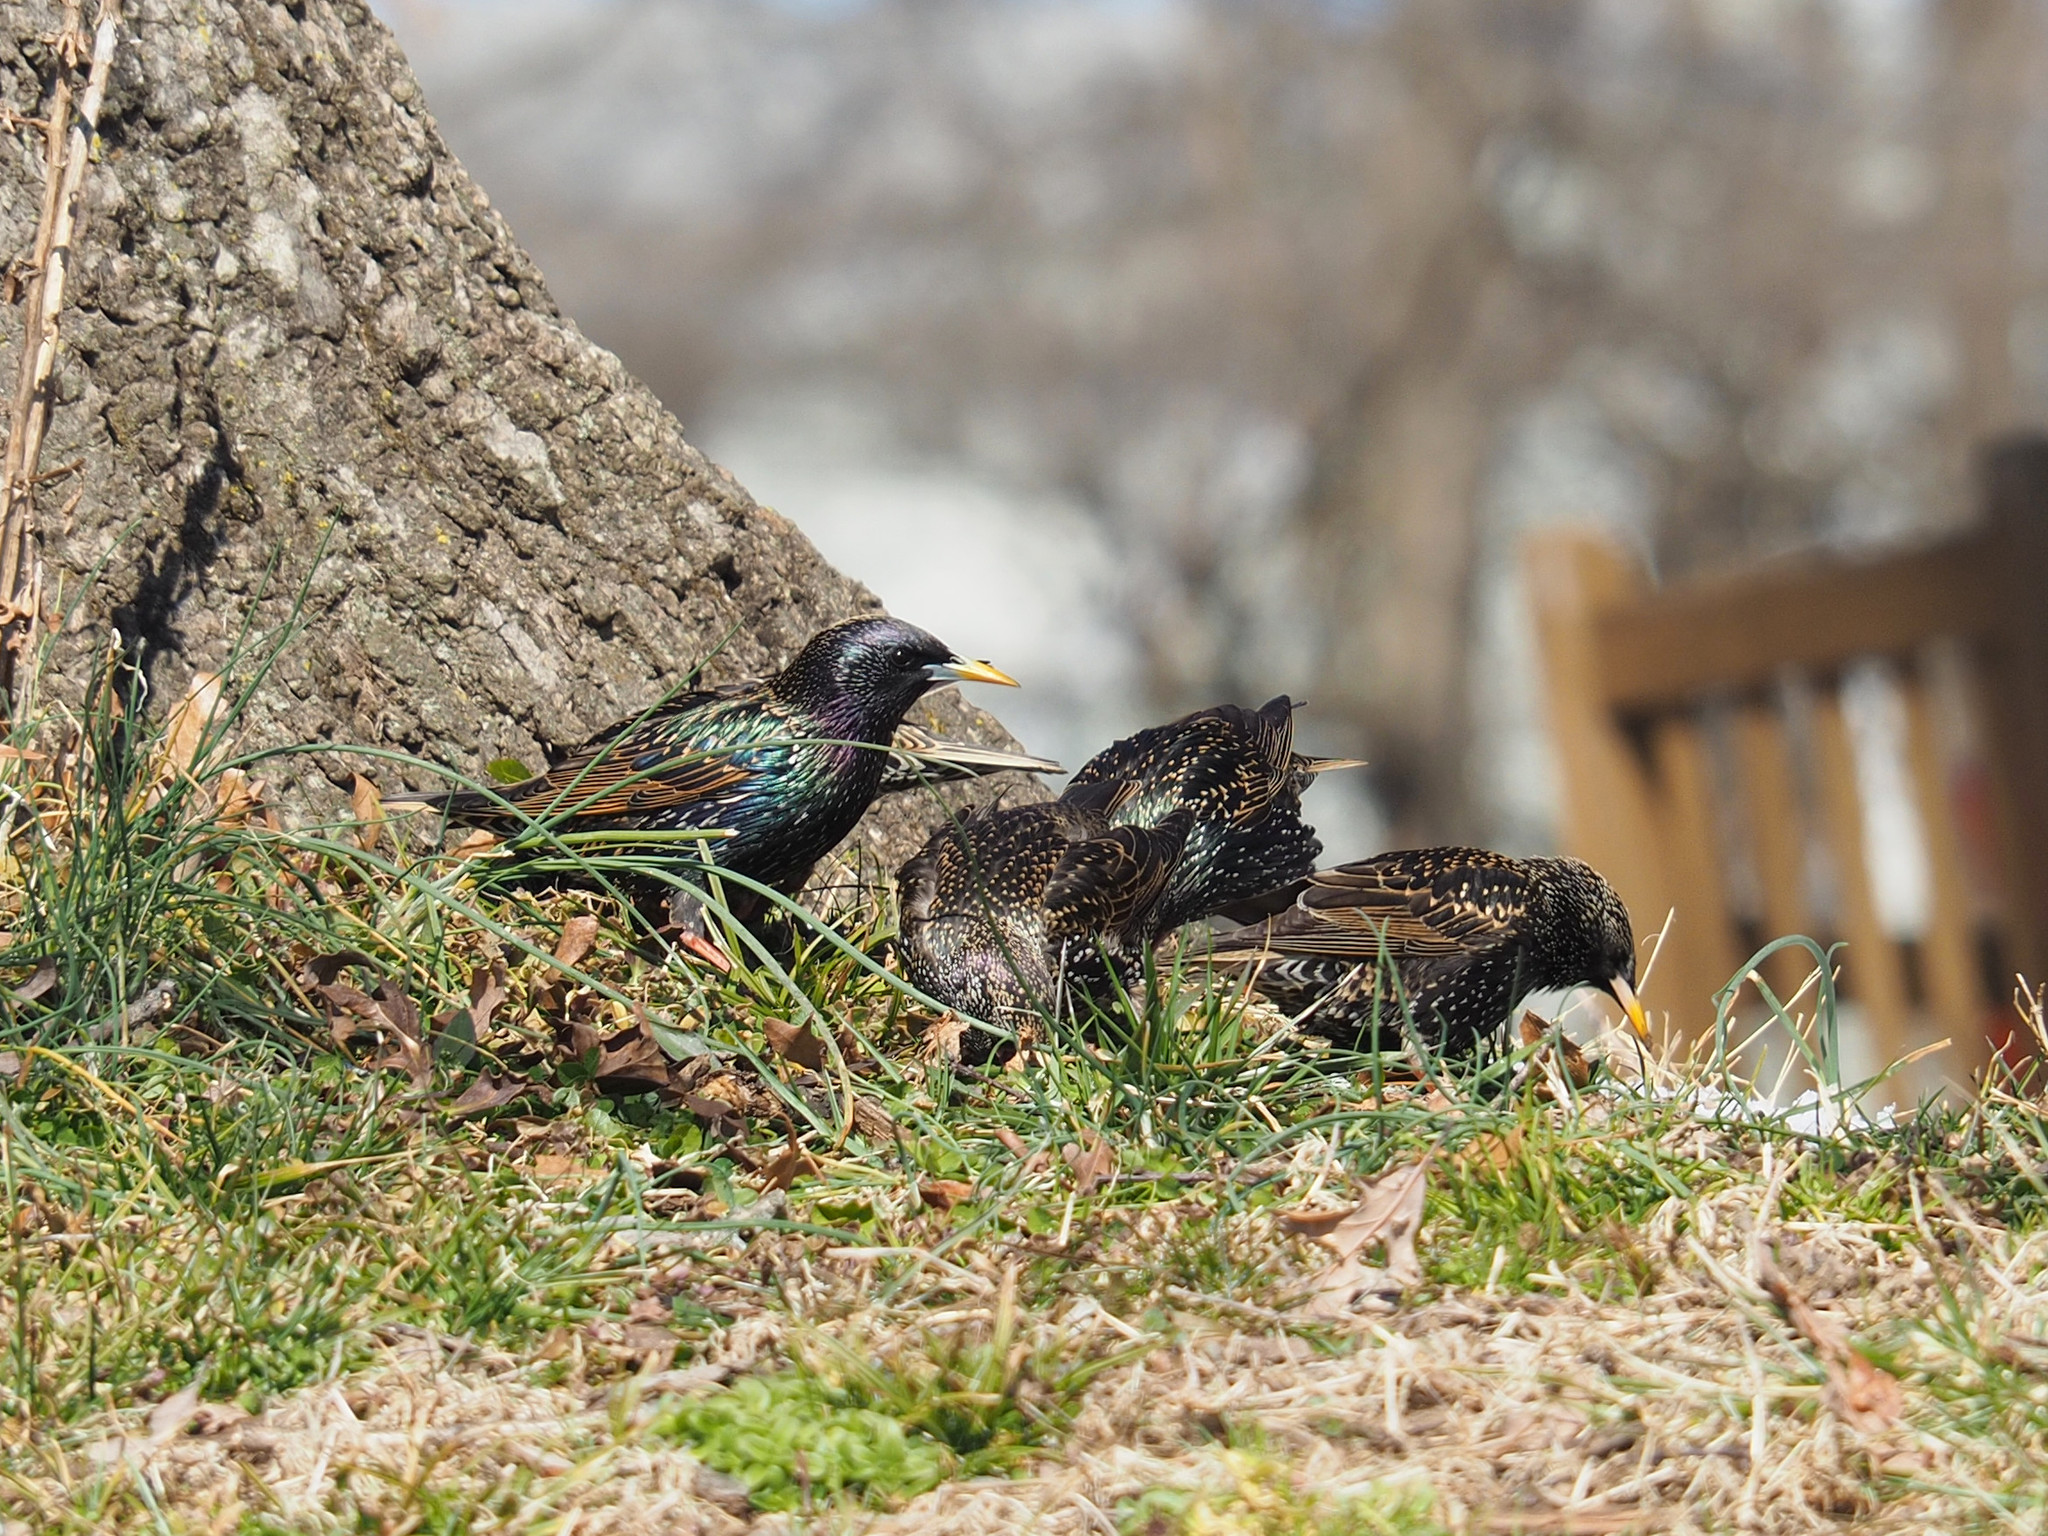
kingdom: Animalia
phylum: Chordata
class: Aves
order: Passeriformes
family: Sturnidae
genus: Sturnus
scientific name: Sturnus vulgaris
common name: Common starling
